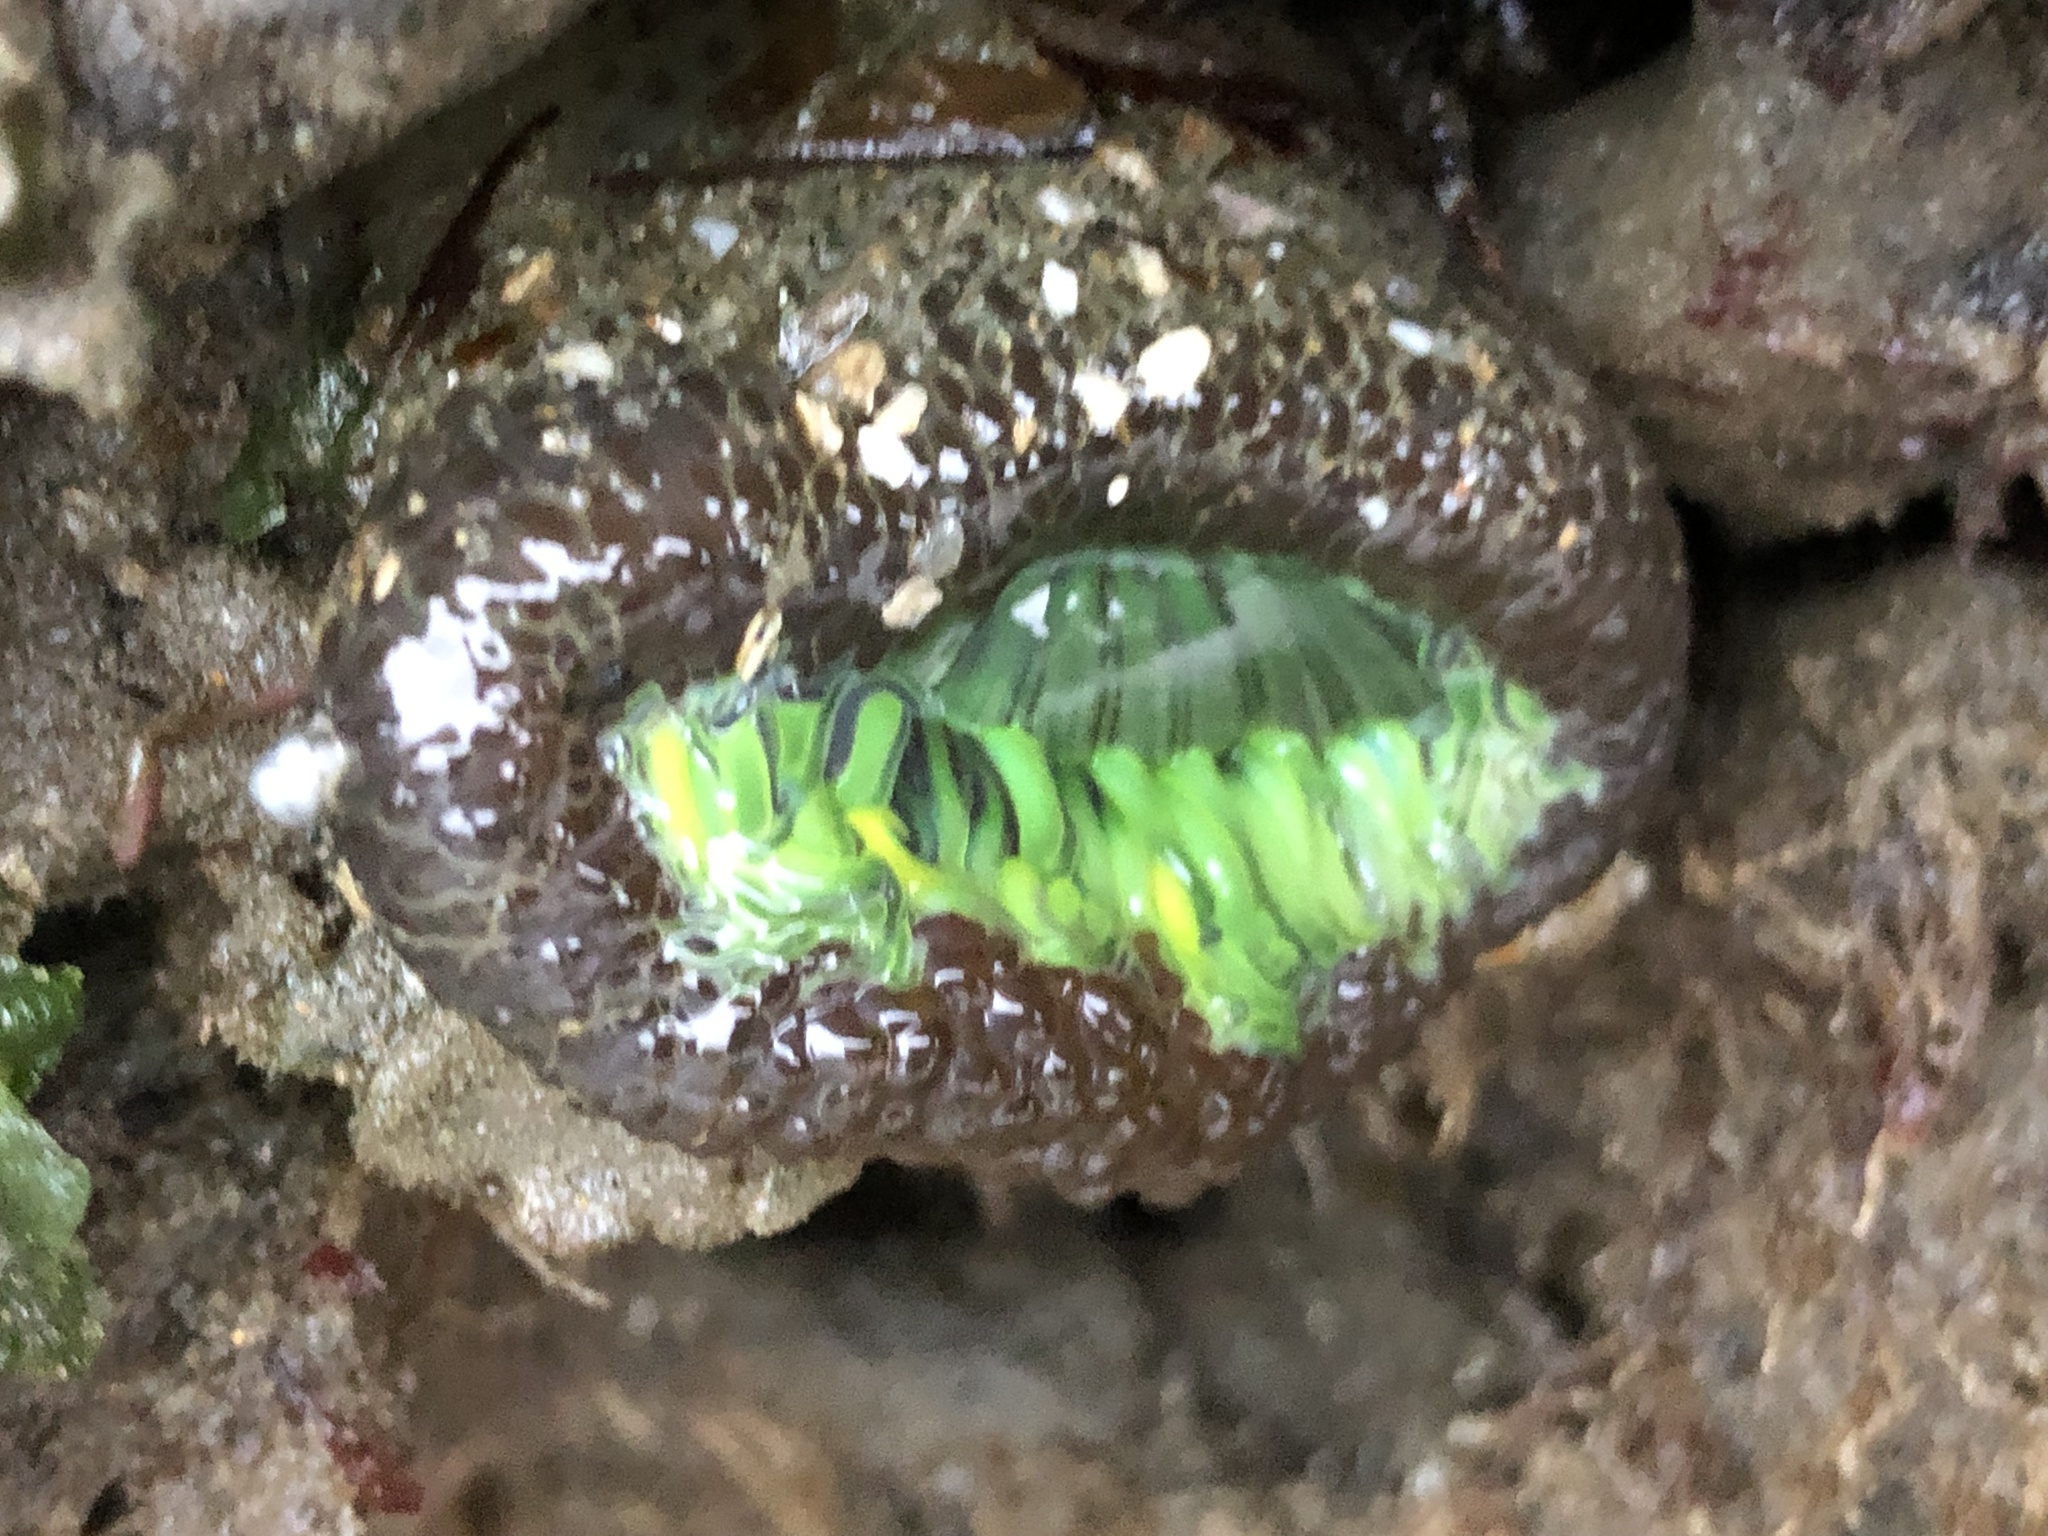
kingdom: Animalia
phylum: Cnidaria
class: Anthozoa
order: Actiniaria
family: Actiniidae
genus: Anthopleura
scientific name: Anthopleura sola
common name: Sun anemone
